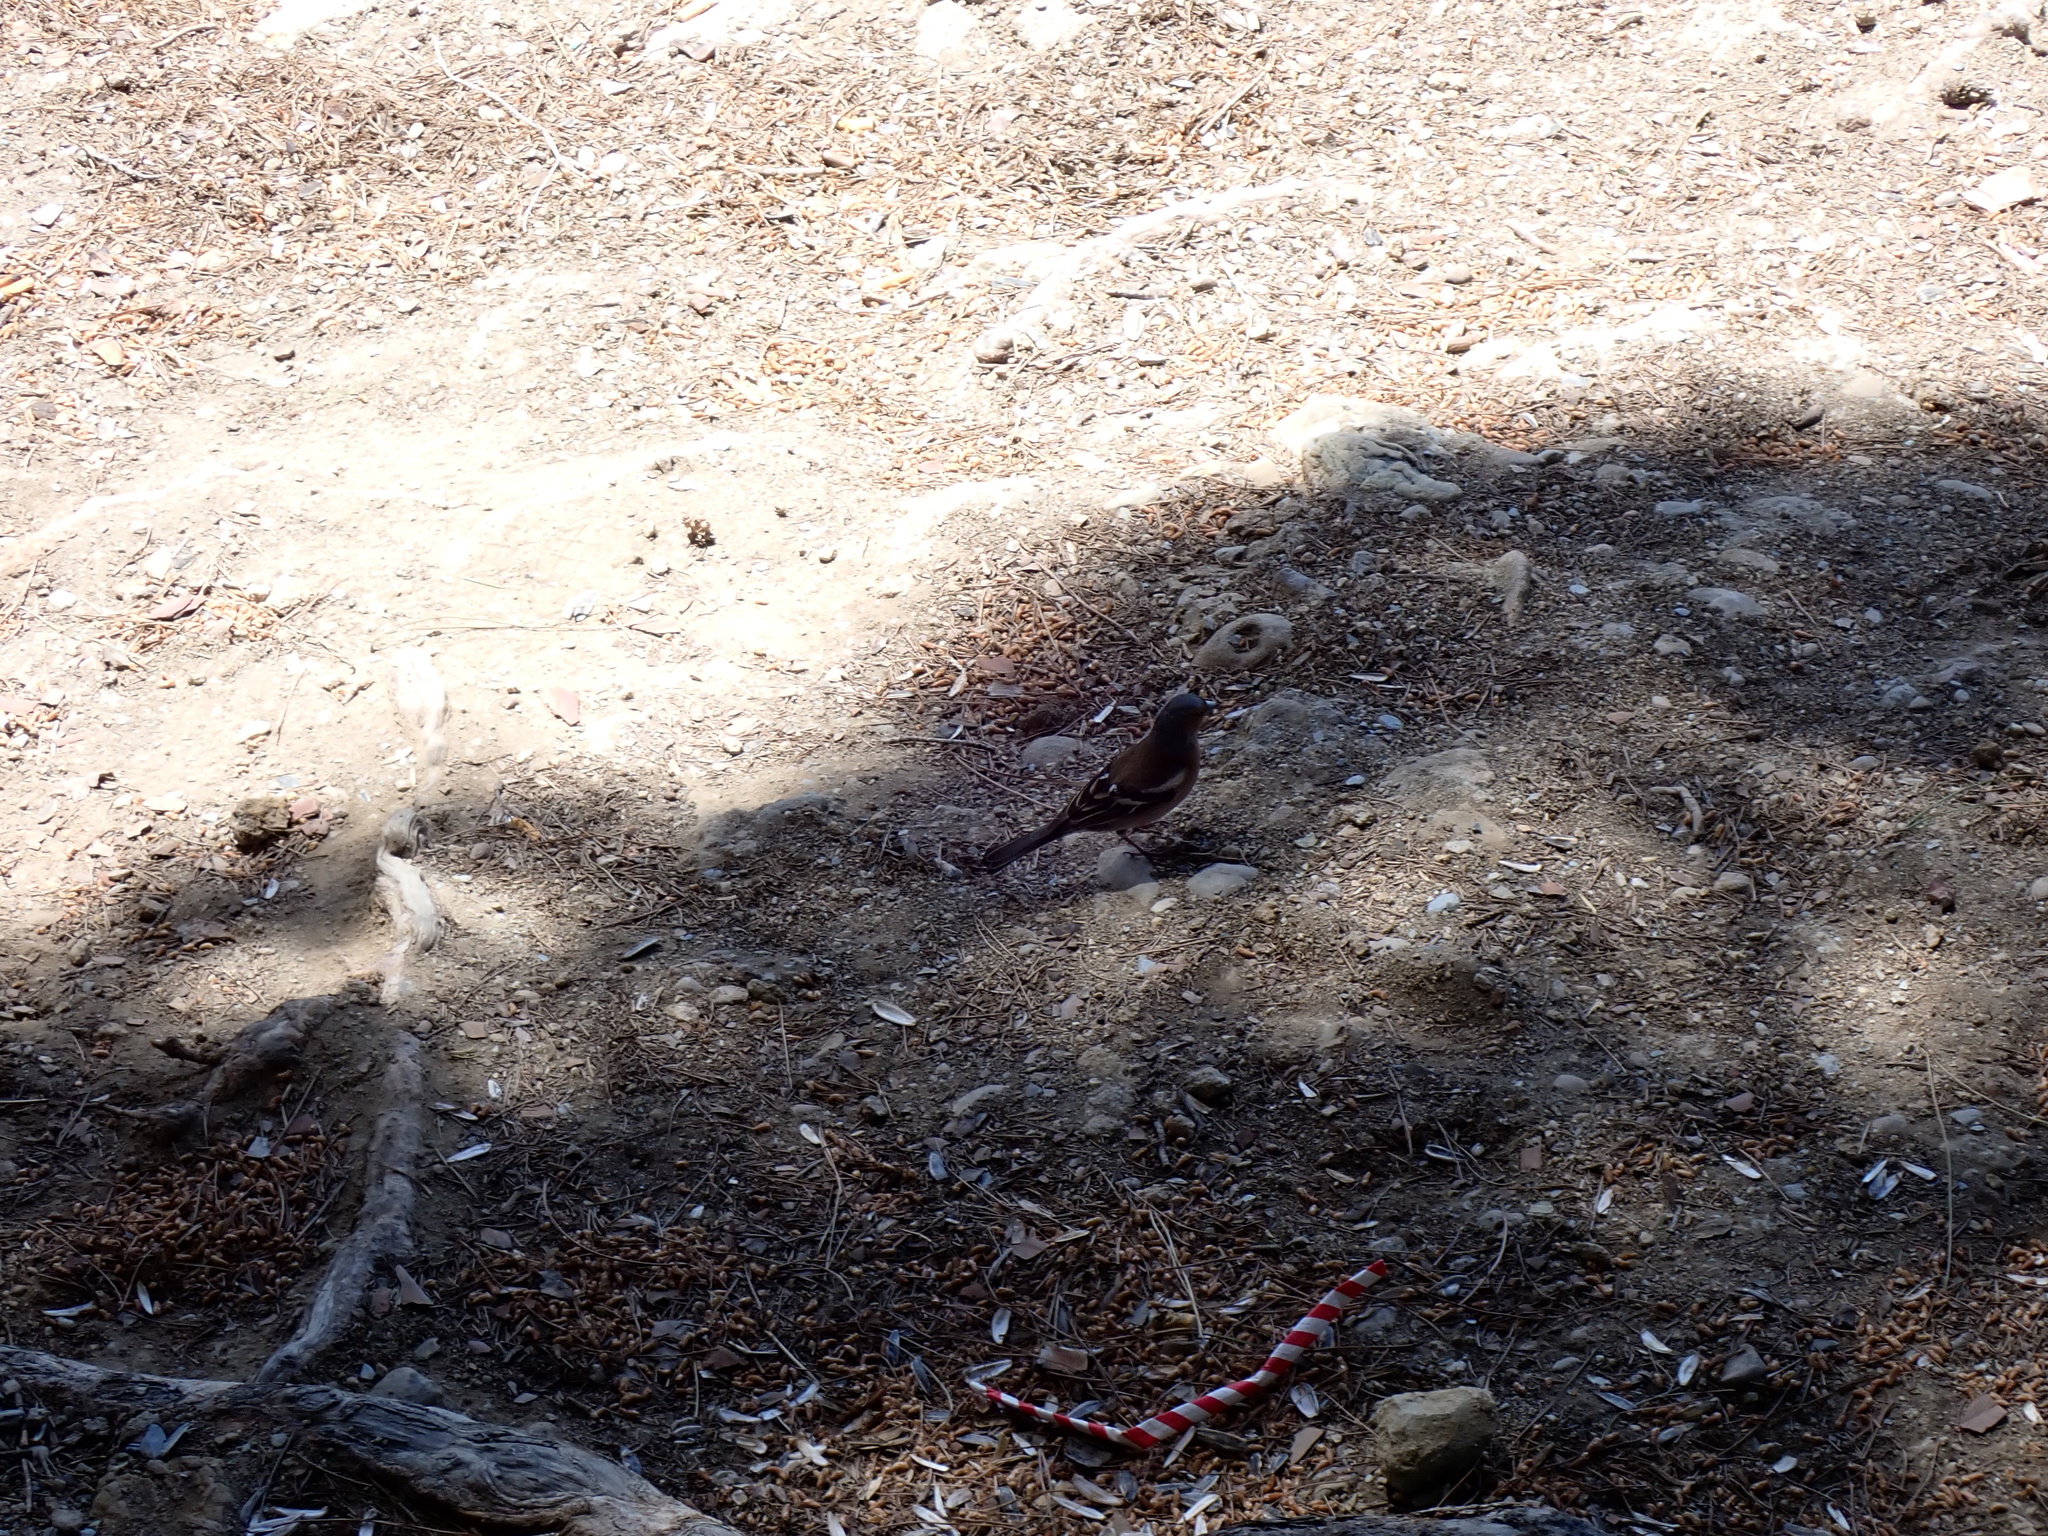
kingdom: Animalia
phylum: Chordata
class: Aves
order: Passeriformes
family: Fringillidae
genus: Fringilla
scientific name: Fringilla coelebs
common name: Common chaffinch
